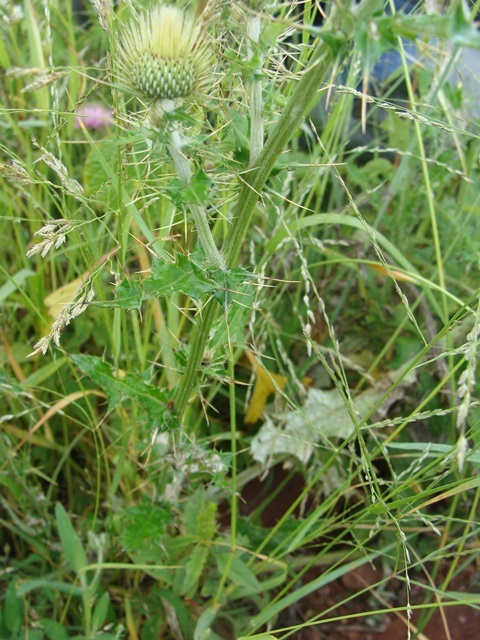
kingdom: Plantae
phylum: Tracheophyta
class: Magnoliopsida
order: Asterales
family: Asteraceae
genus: Cirsium
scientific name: Cirsium rhaphilepis
